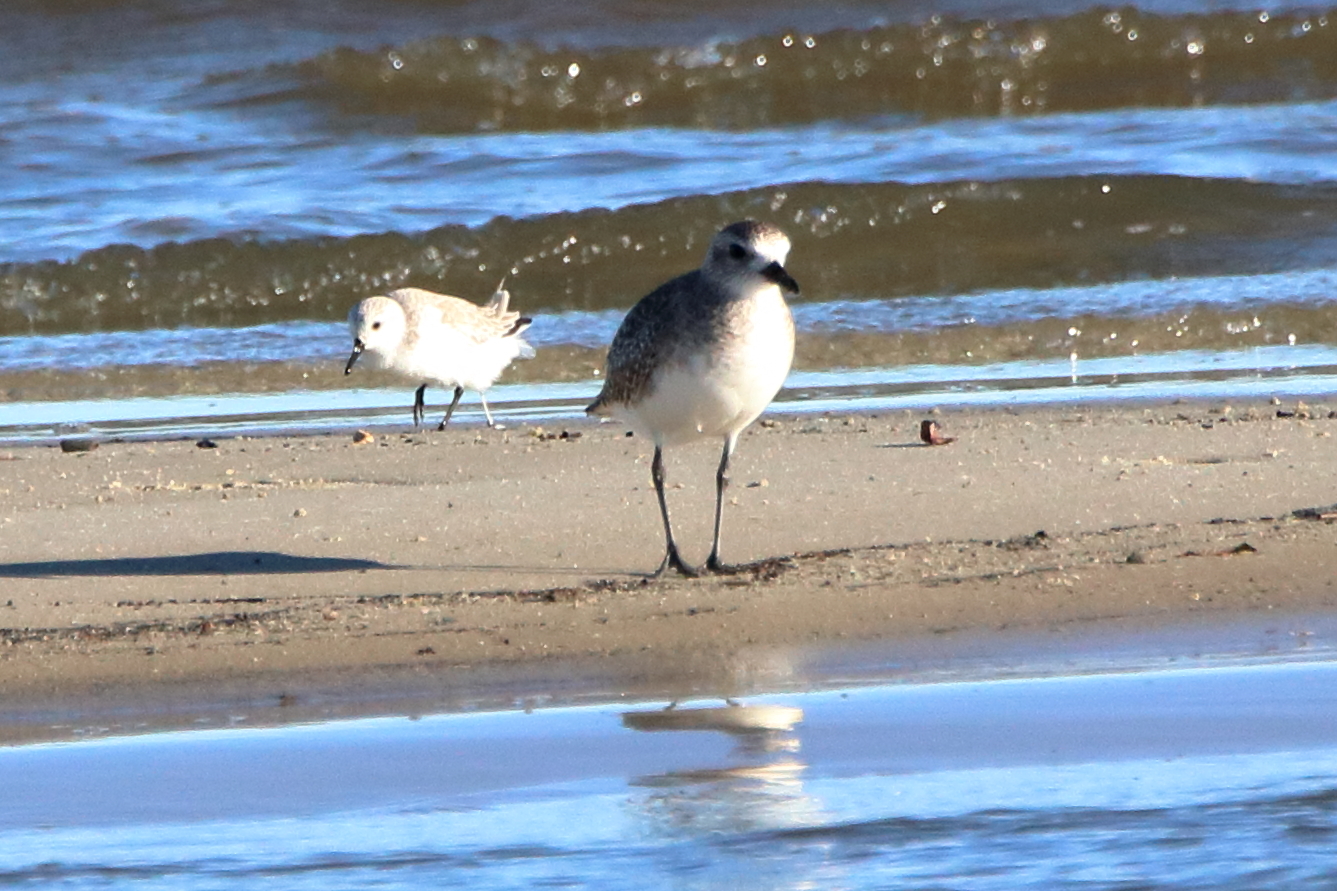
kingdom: Animalia
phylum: Chordata
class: Aves
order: Charadriiformes
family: Charadriidae
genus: Pluvialis
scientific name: Pluvialis squatarola
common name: Grey plover
